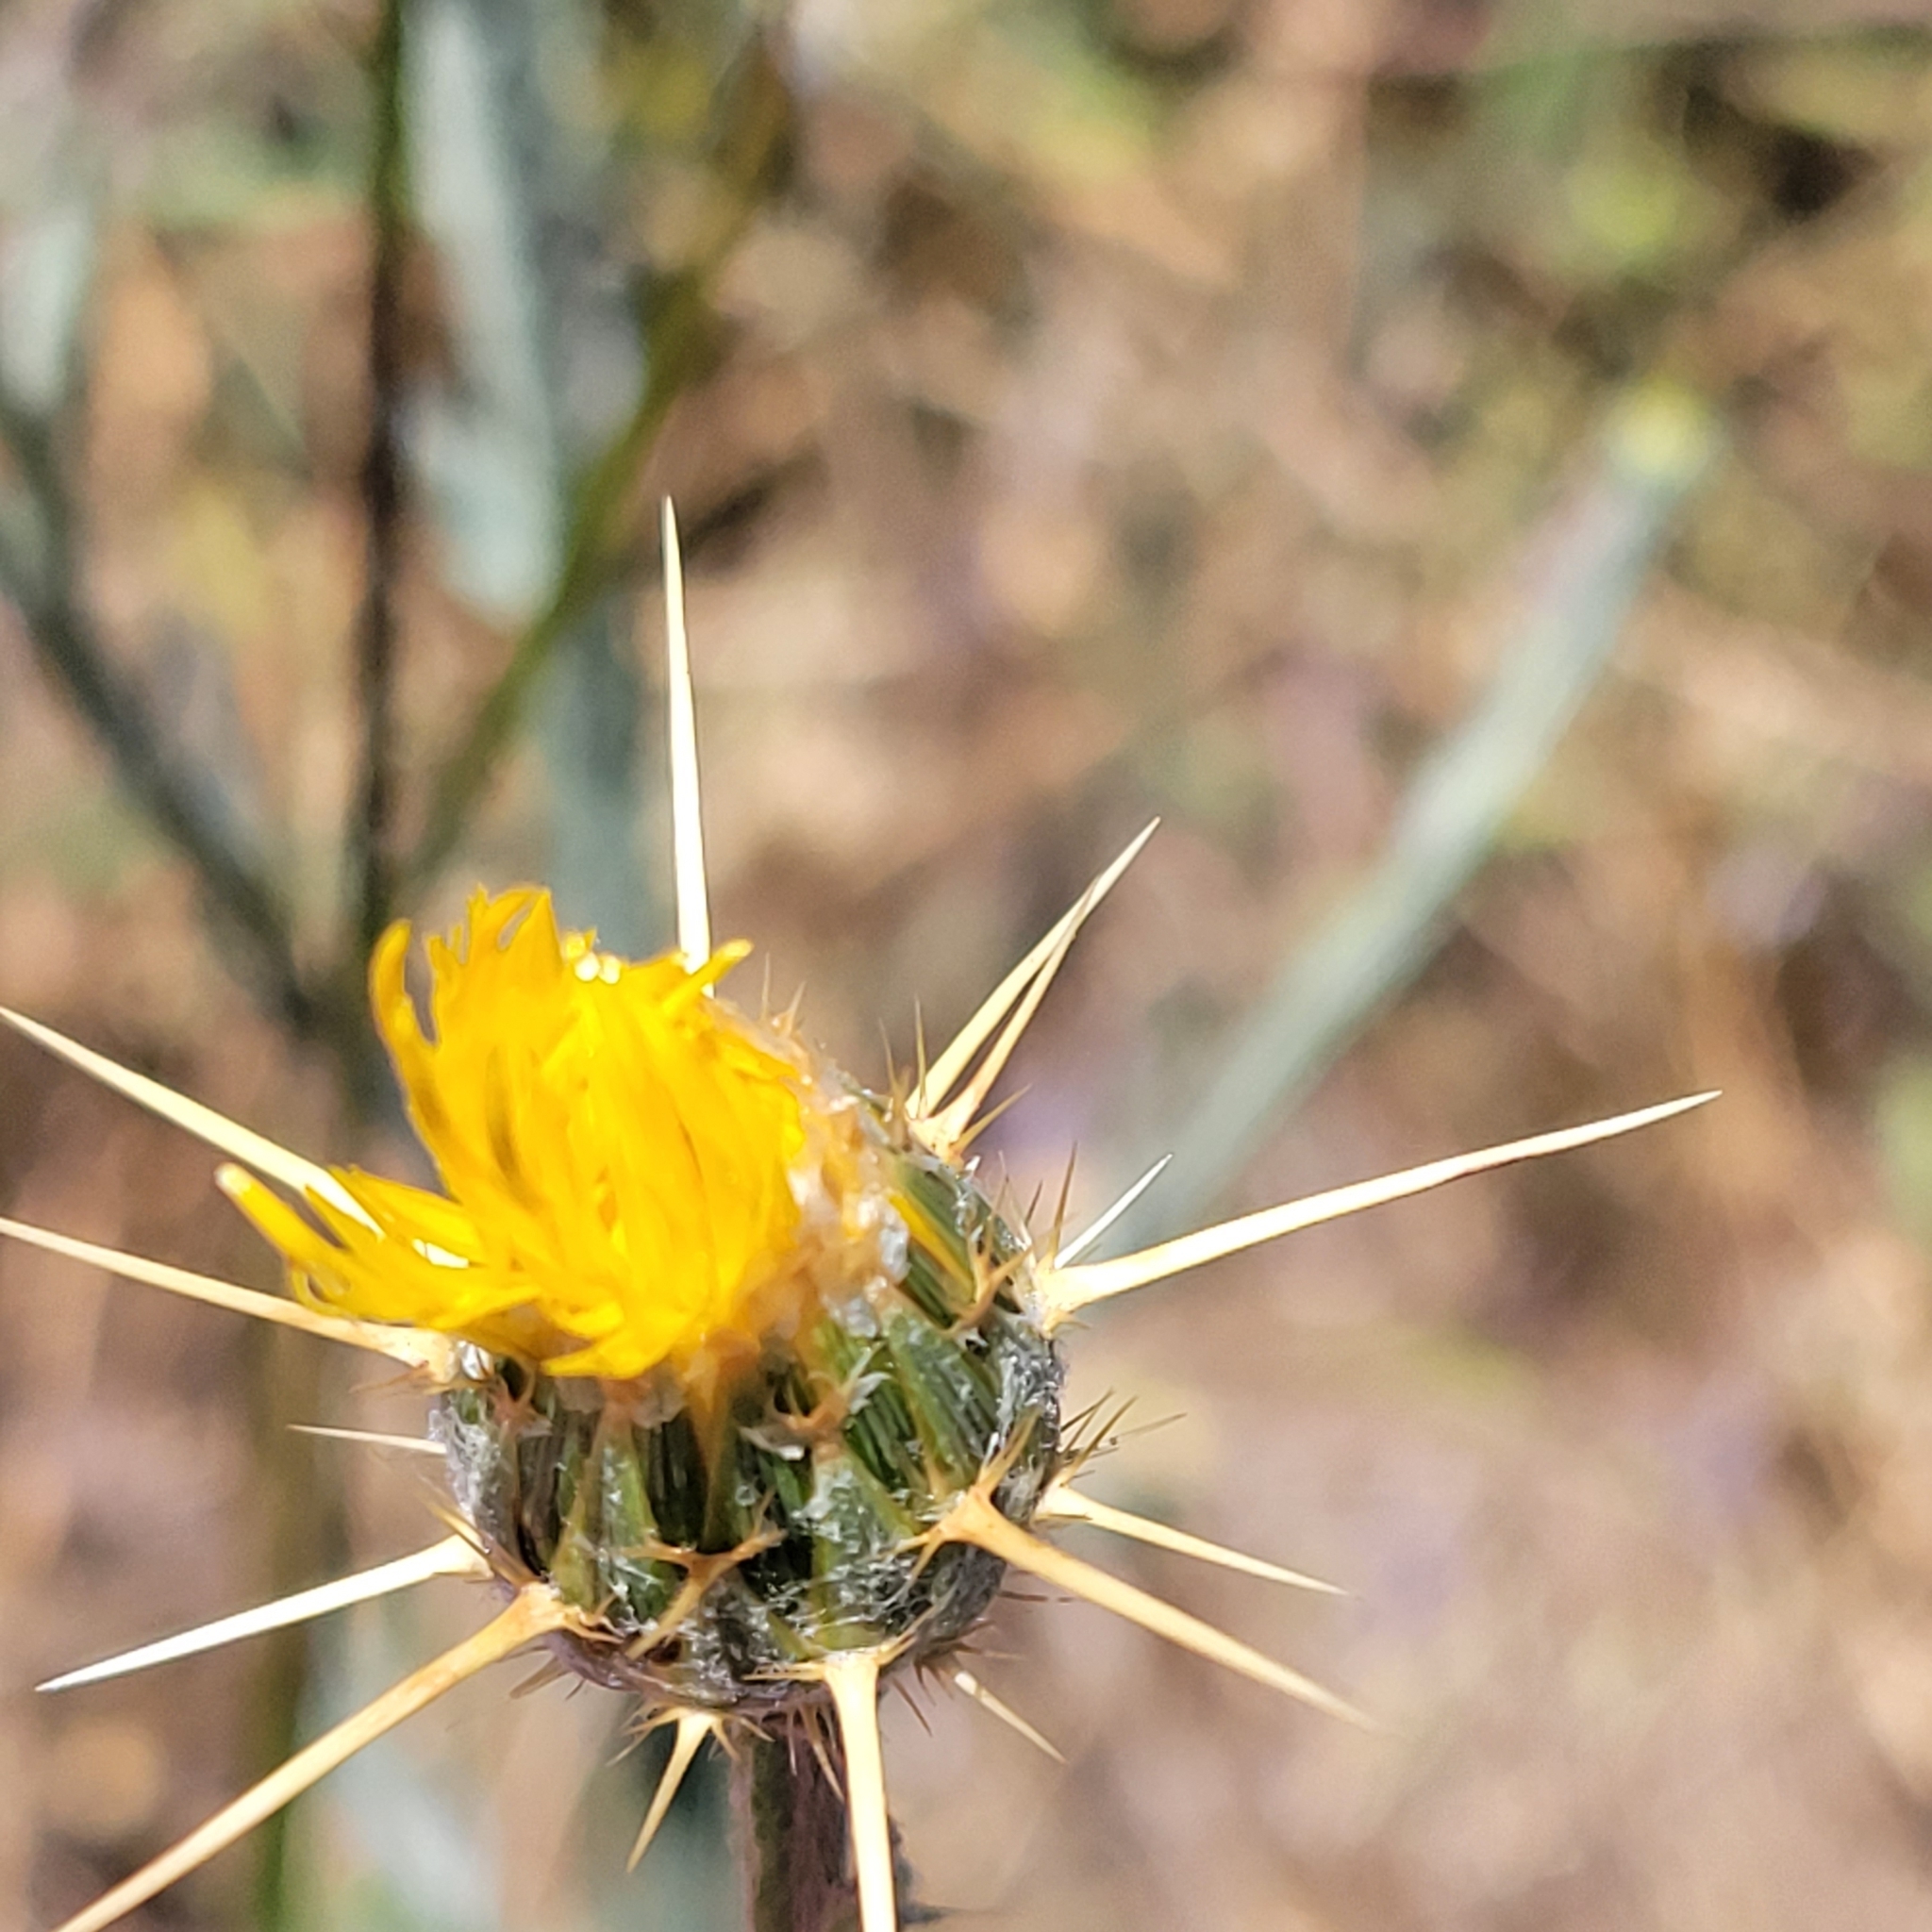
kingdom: Plantae
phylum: Tracheophyta
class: Magnoliopsida
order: Asterales
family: Asteraceae
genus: Centaurea
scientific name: Centaurea solstitialis
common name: Yellow star-thistle
